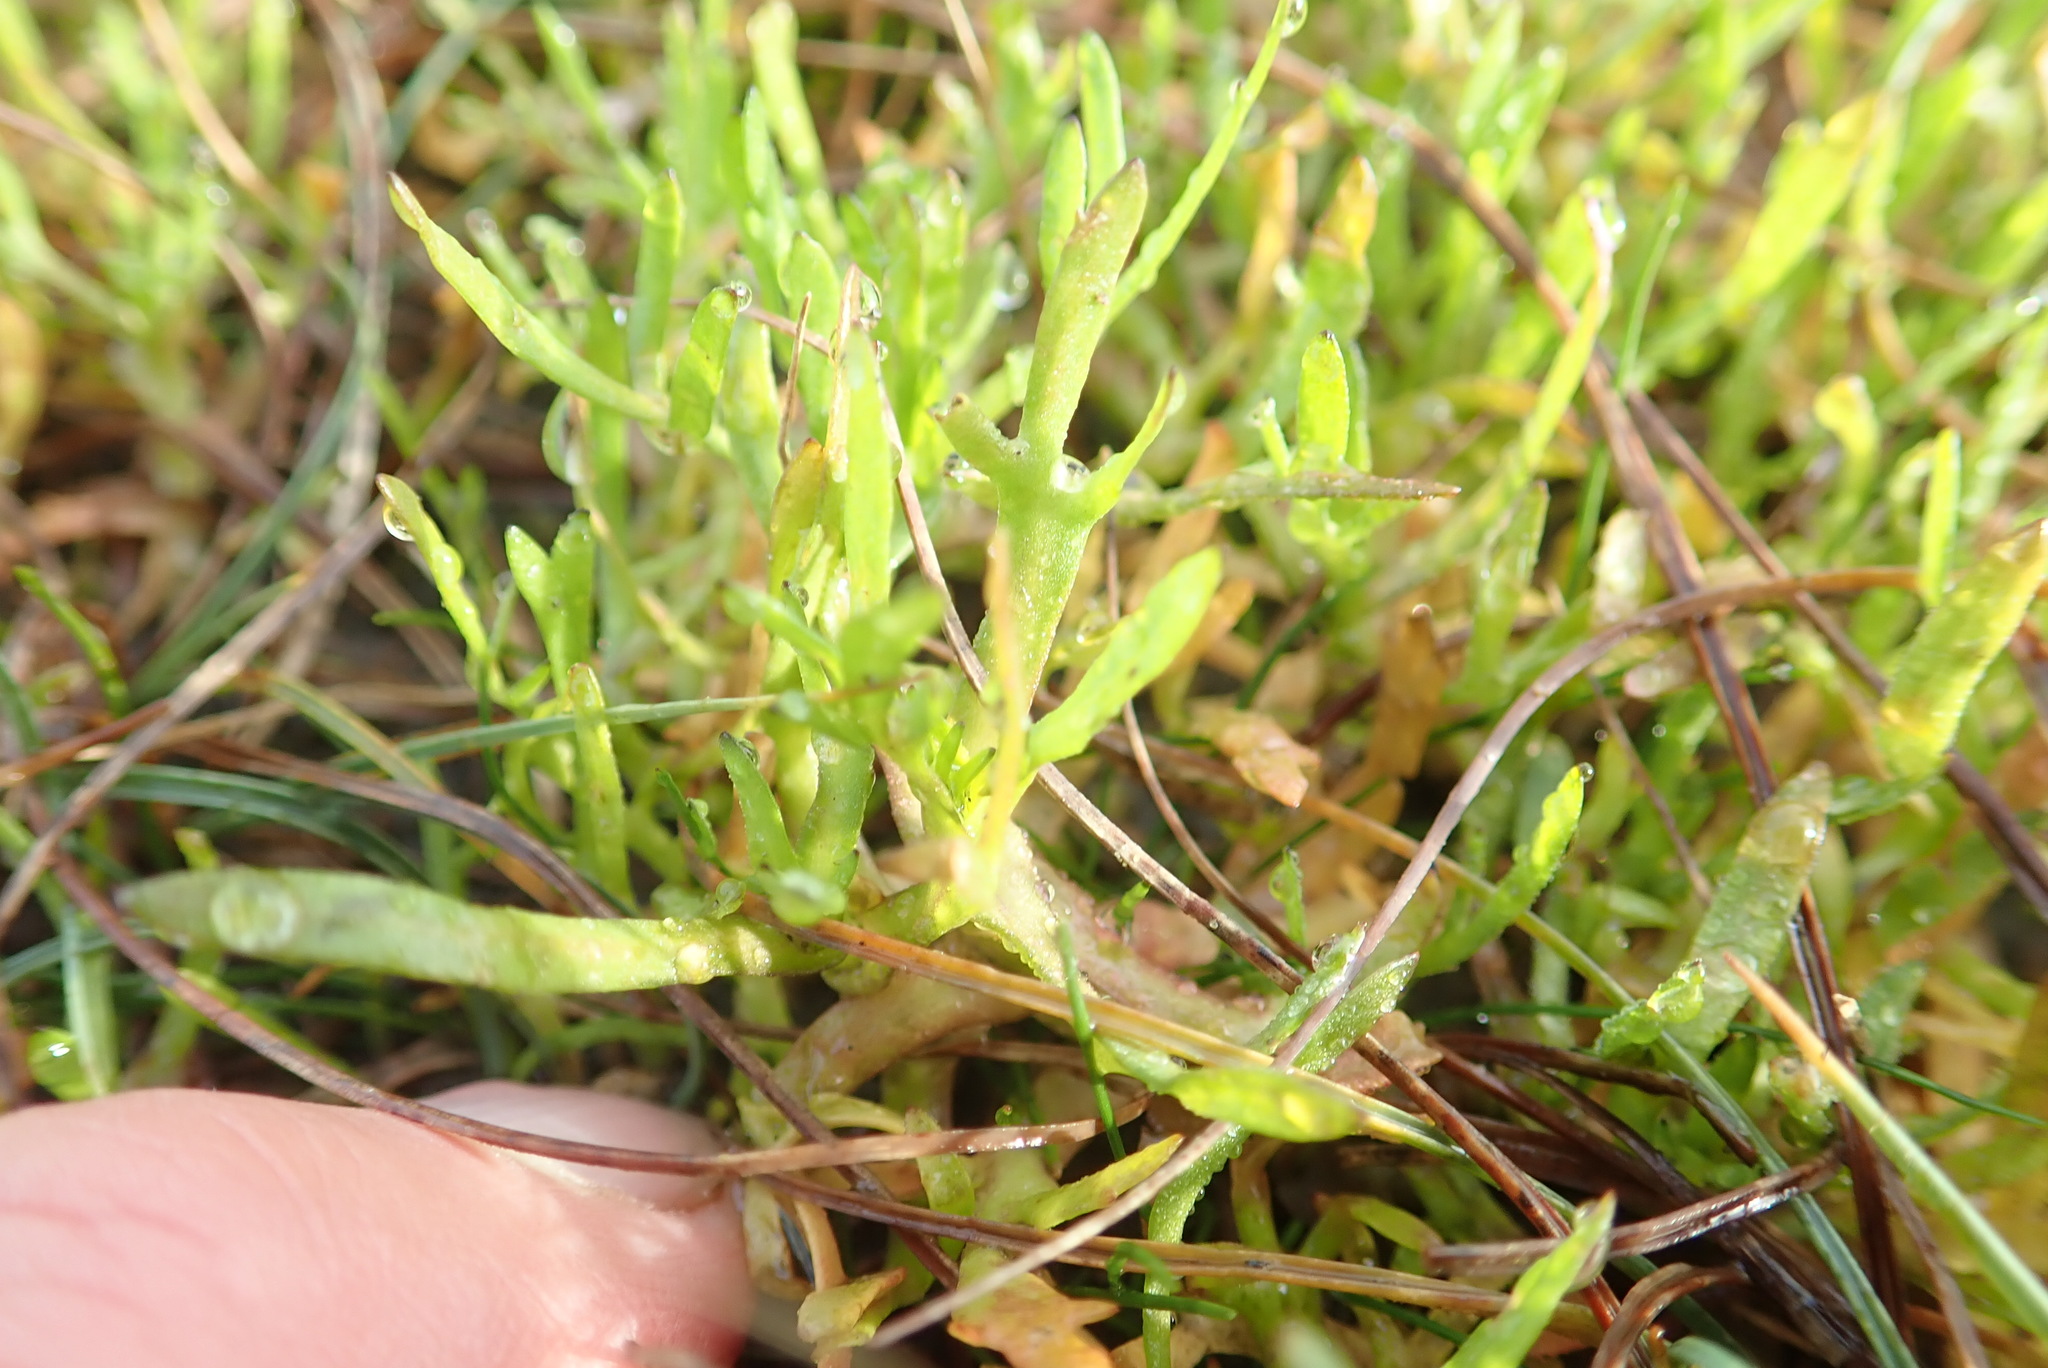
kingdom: Plantae
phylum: Tracheophyta
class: Magnoliopsida
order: Asterales
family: Asteraceae
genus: Cotula
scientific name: Cotula coronopifolia
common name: Buttonweed
